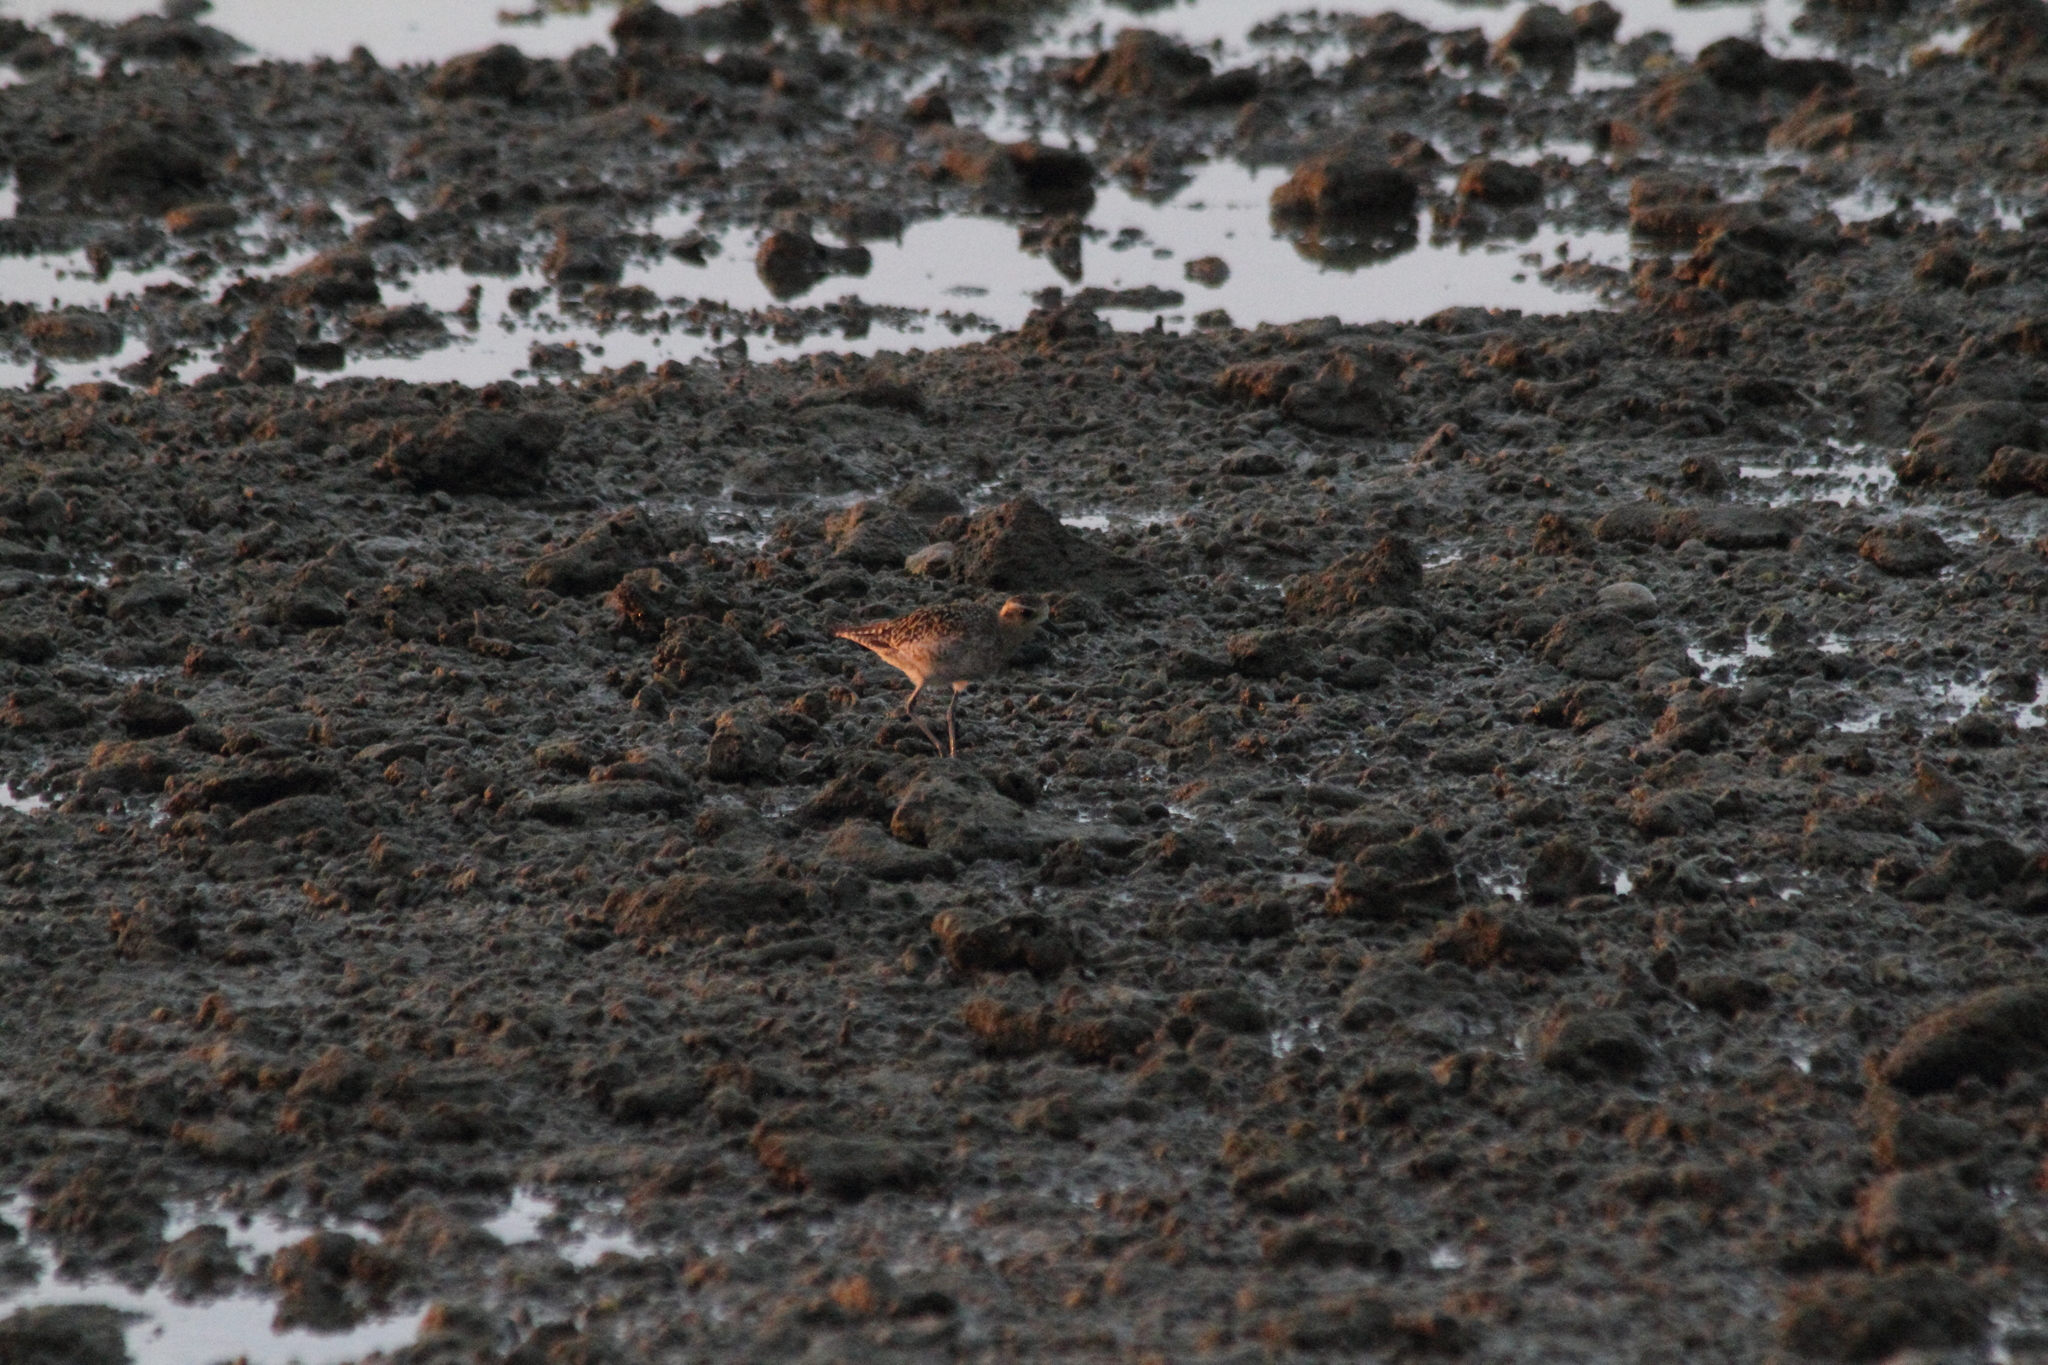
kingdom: Animalia
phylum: Chordata
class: Aves
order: Charadriiformes
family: Charadriidae
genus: Pluvialis
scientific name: Pluvialis fulva
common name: Pacific golden plover
